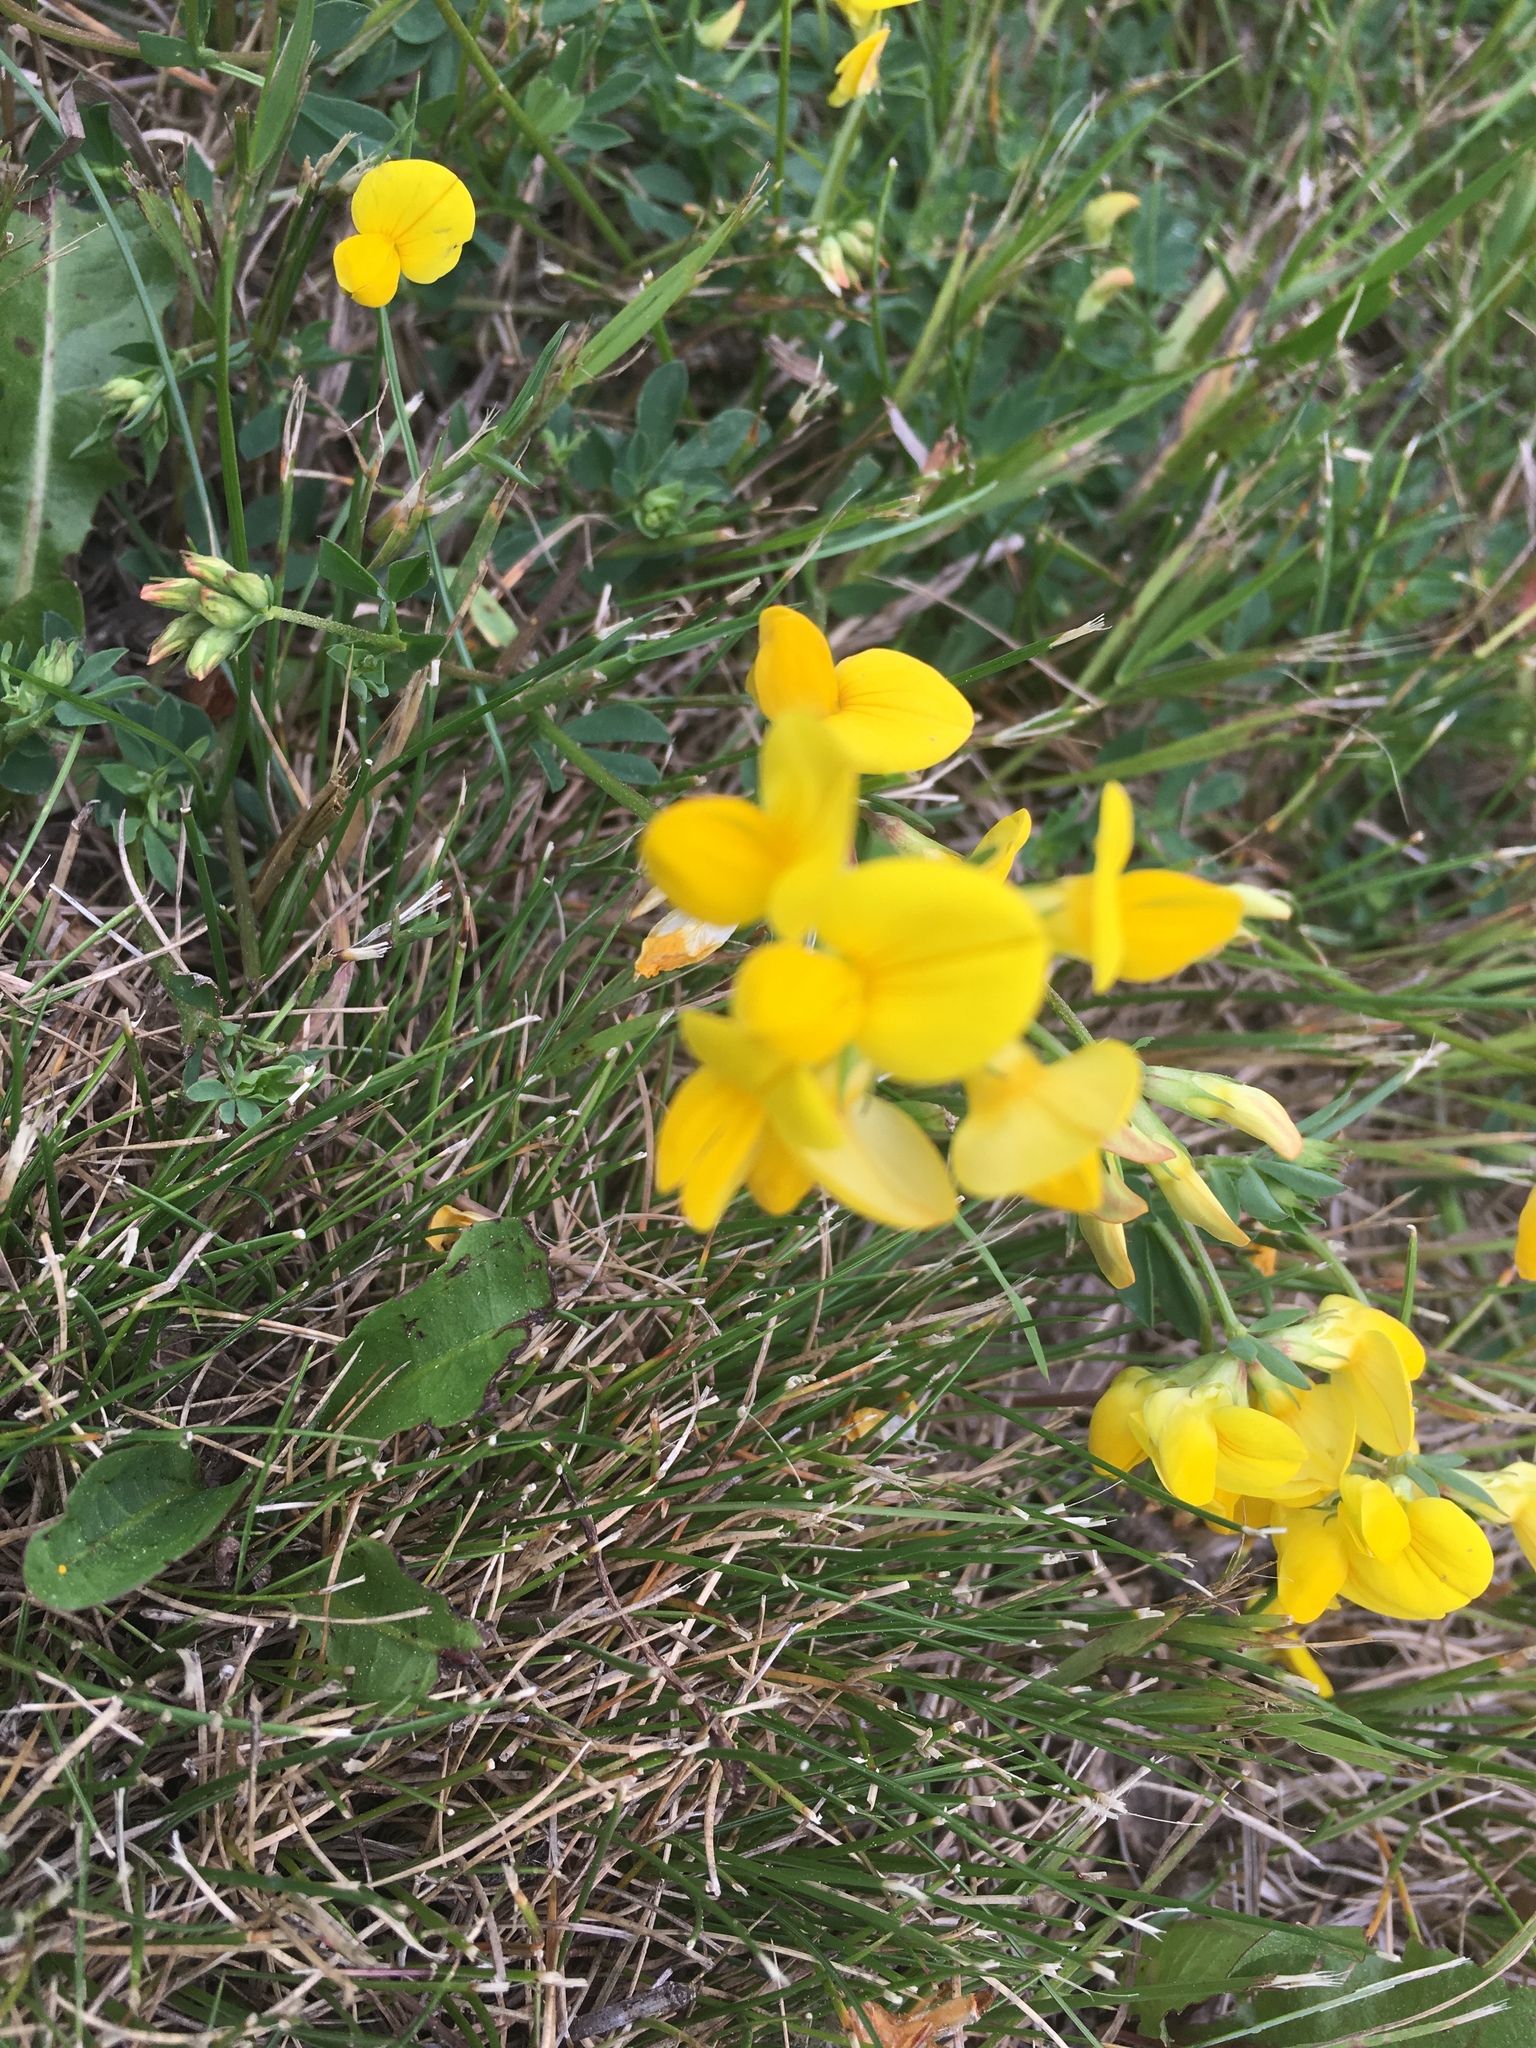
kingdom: Plantae
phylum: Tracheophyta
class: Magnoliopsida
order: Fabales
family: Fabaceae
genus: Lotus
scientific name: Lotus corniculatus
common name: Common bird's-foot-trefoil
